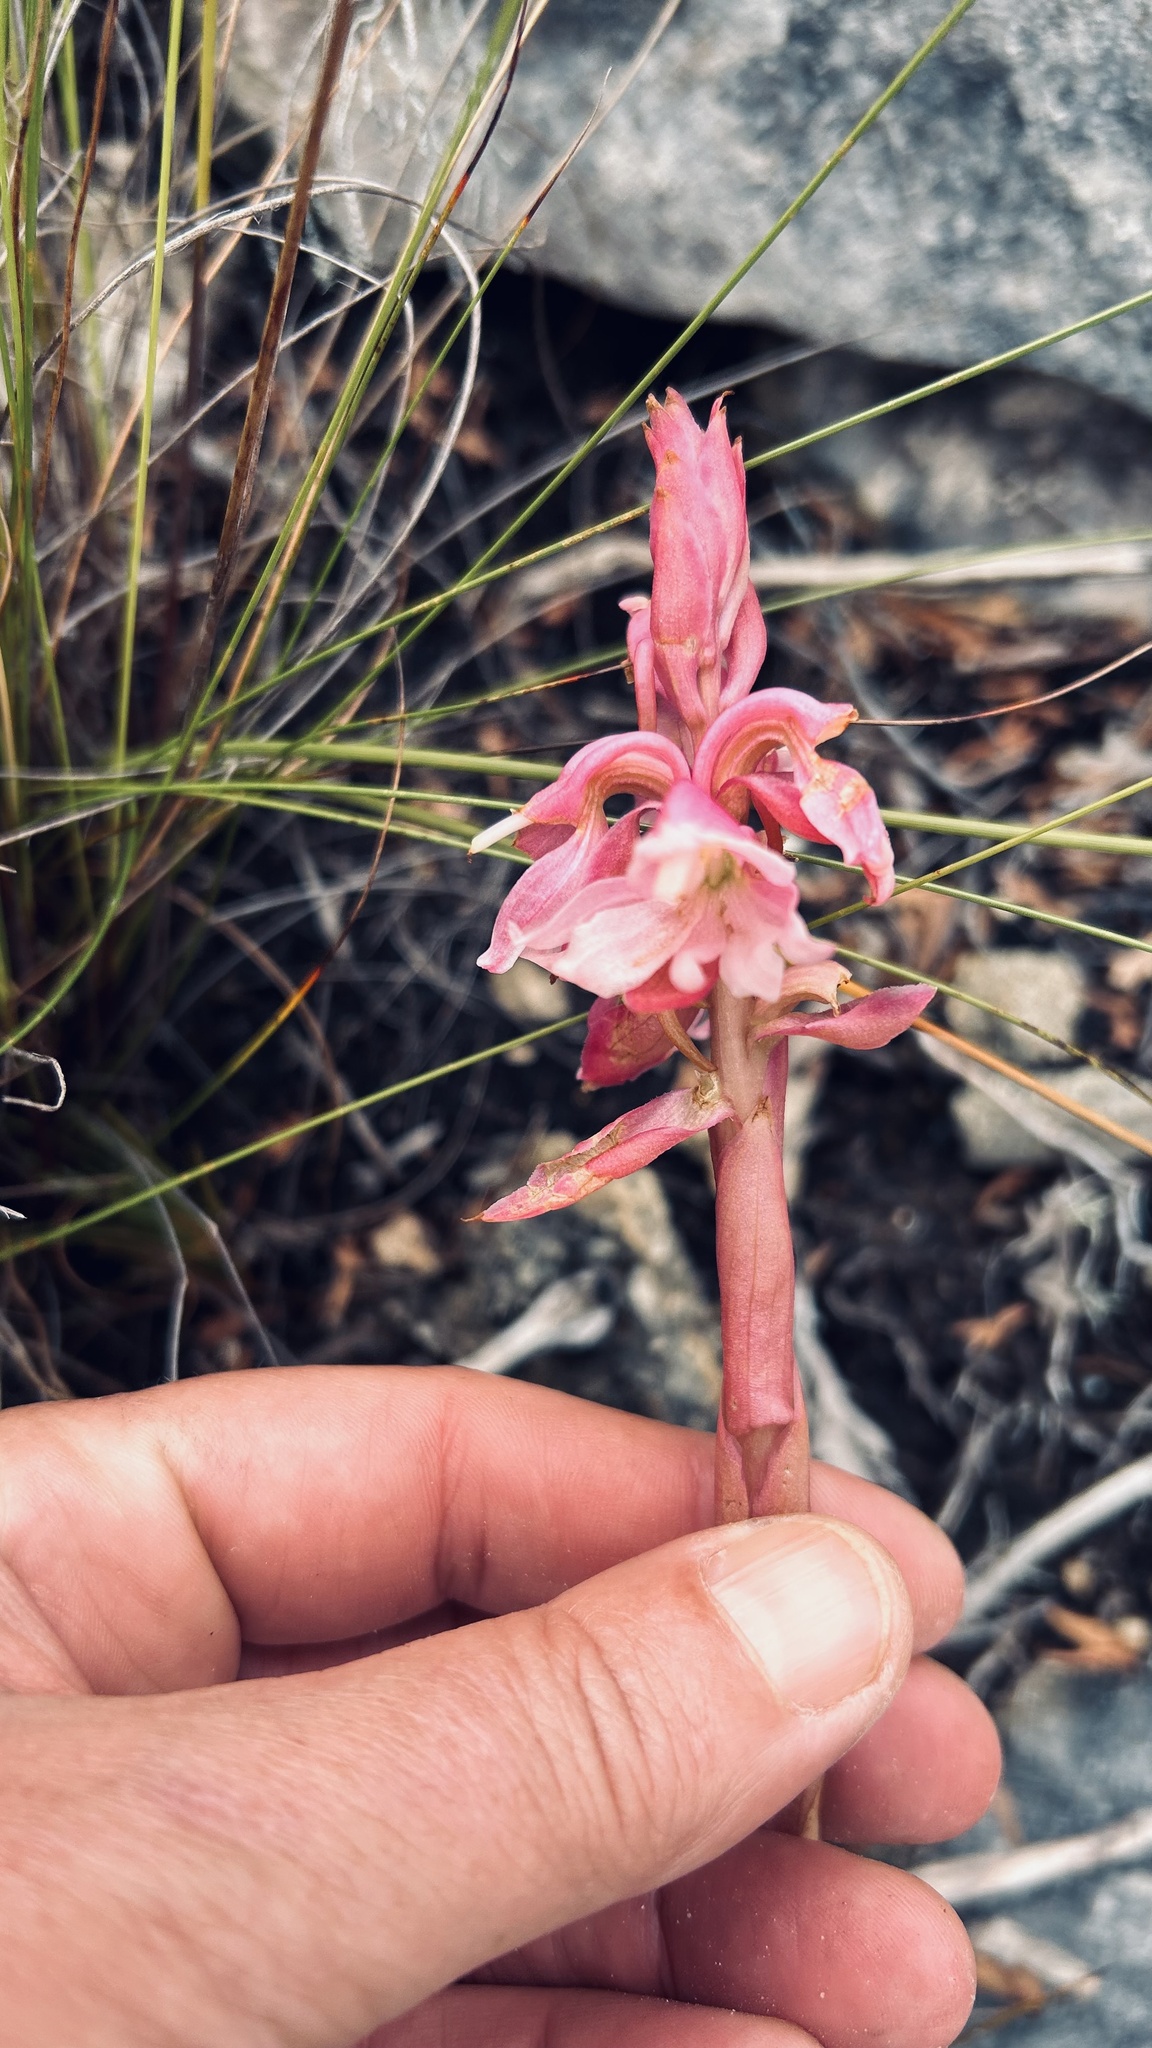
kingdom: Plantae
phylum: Tracheophyta
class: Liliopsida
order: Asparagales
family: Orchidaceae
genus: Satyrium
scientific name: Satyrium carneum
